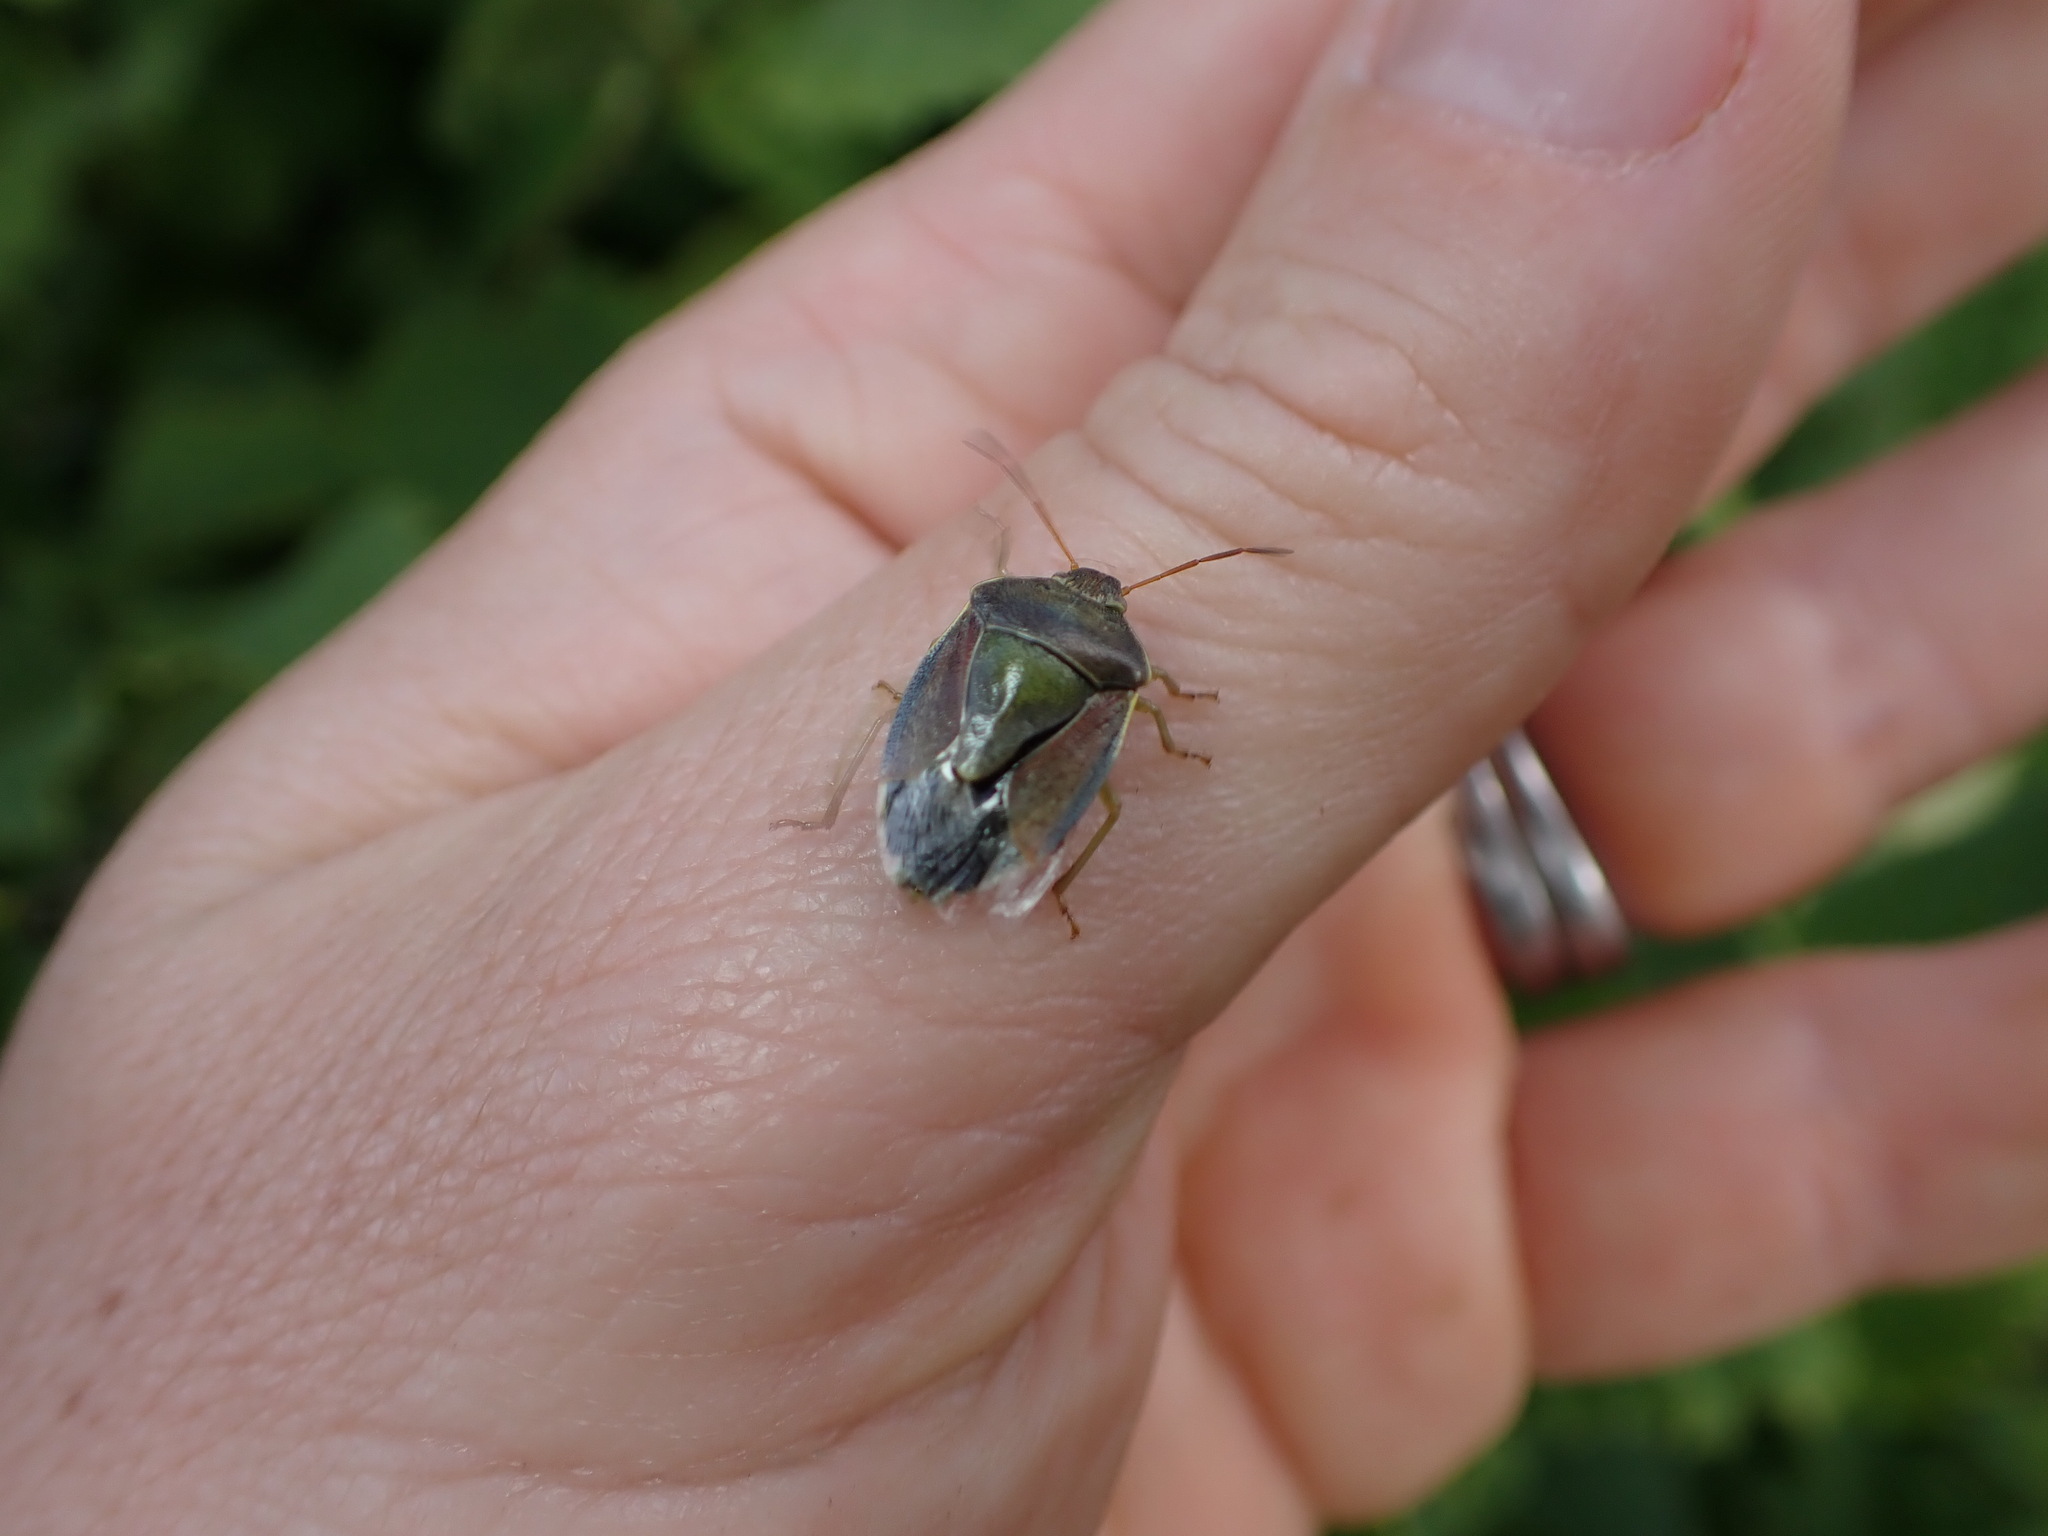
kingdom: Animalia
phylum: Arthropoda
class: Insecta
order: Hemiptera
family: Pentatomidae
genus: Piezodorus
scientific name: Piezodorus lituratus
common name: Stink bug
